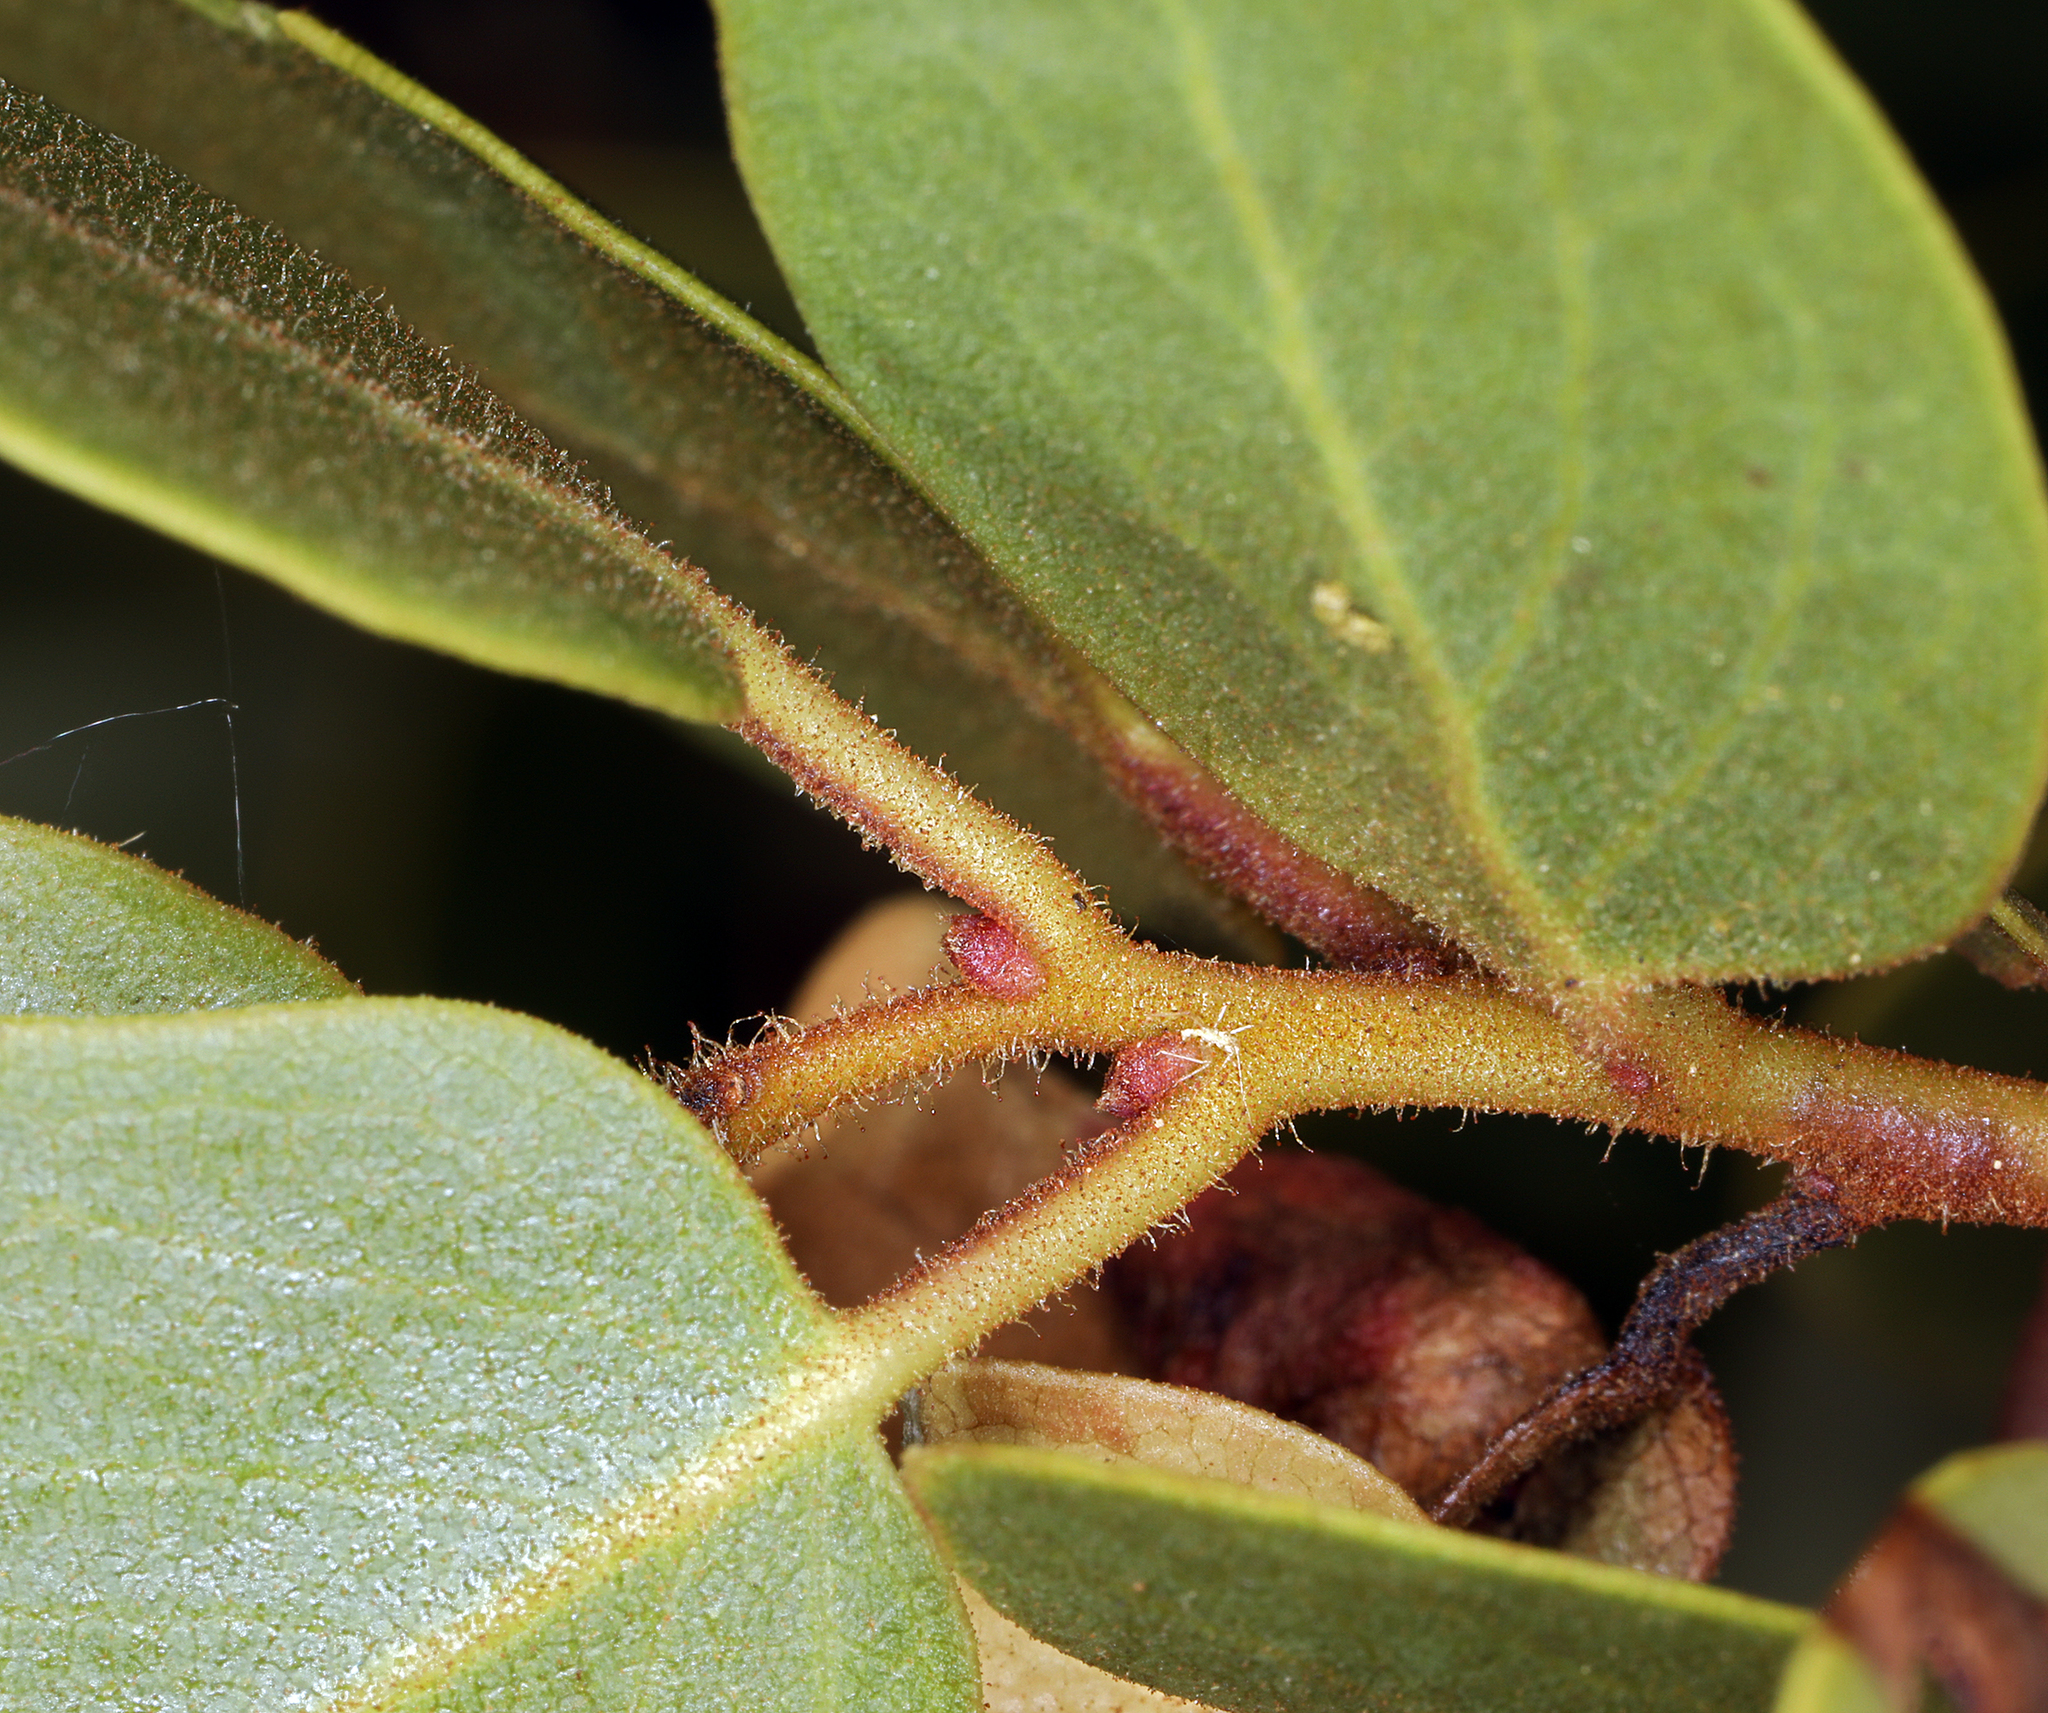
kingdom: Plantae
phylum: Tracheophyta
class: Magnoliopsida
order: Ericales
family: Ericaceae
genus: Arctostaphylos
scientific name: Arctostaphylos patula
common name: Green-leaf manzanita
